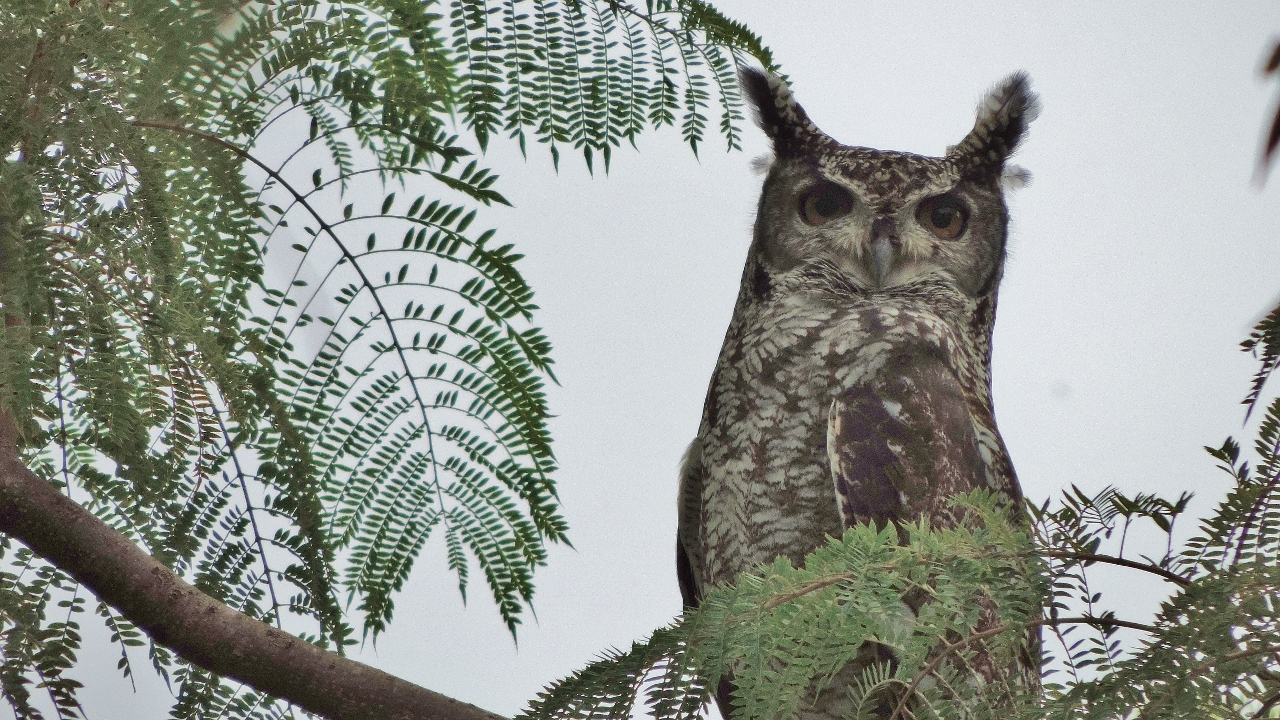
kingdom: Animalia
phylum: Chordata
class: Aves
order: Strigiformes
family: Strigidae
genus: Bubo
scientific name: Bubo africanus
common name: Spotted eagle-owl
